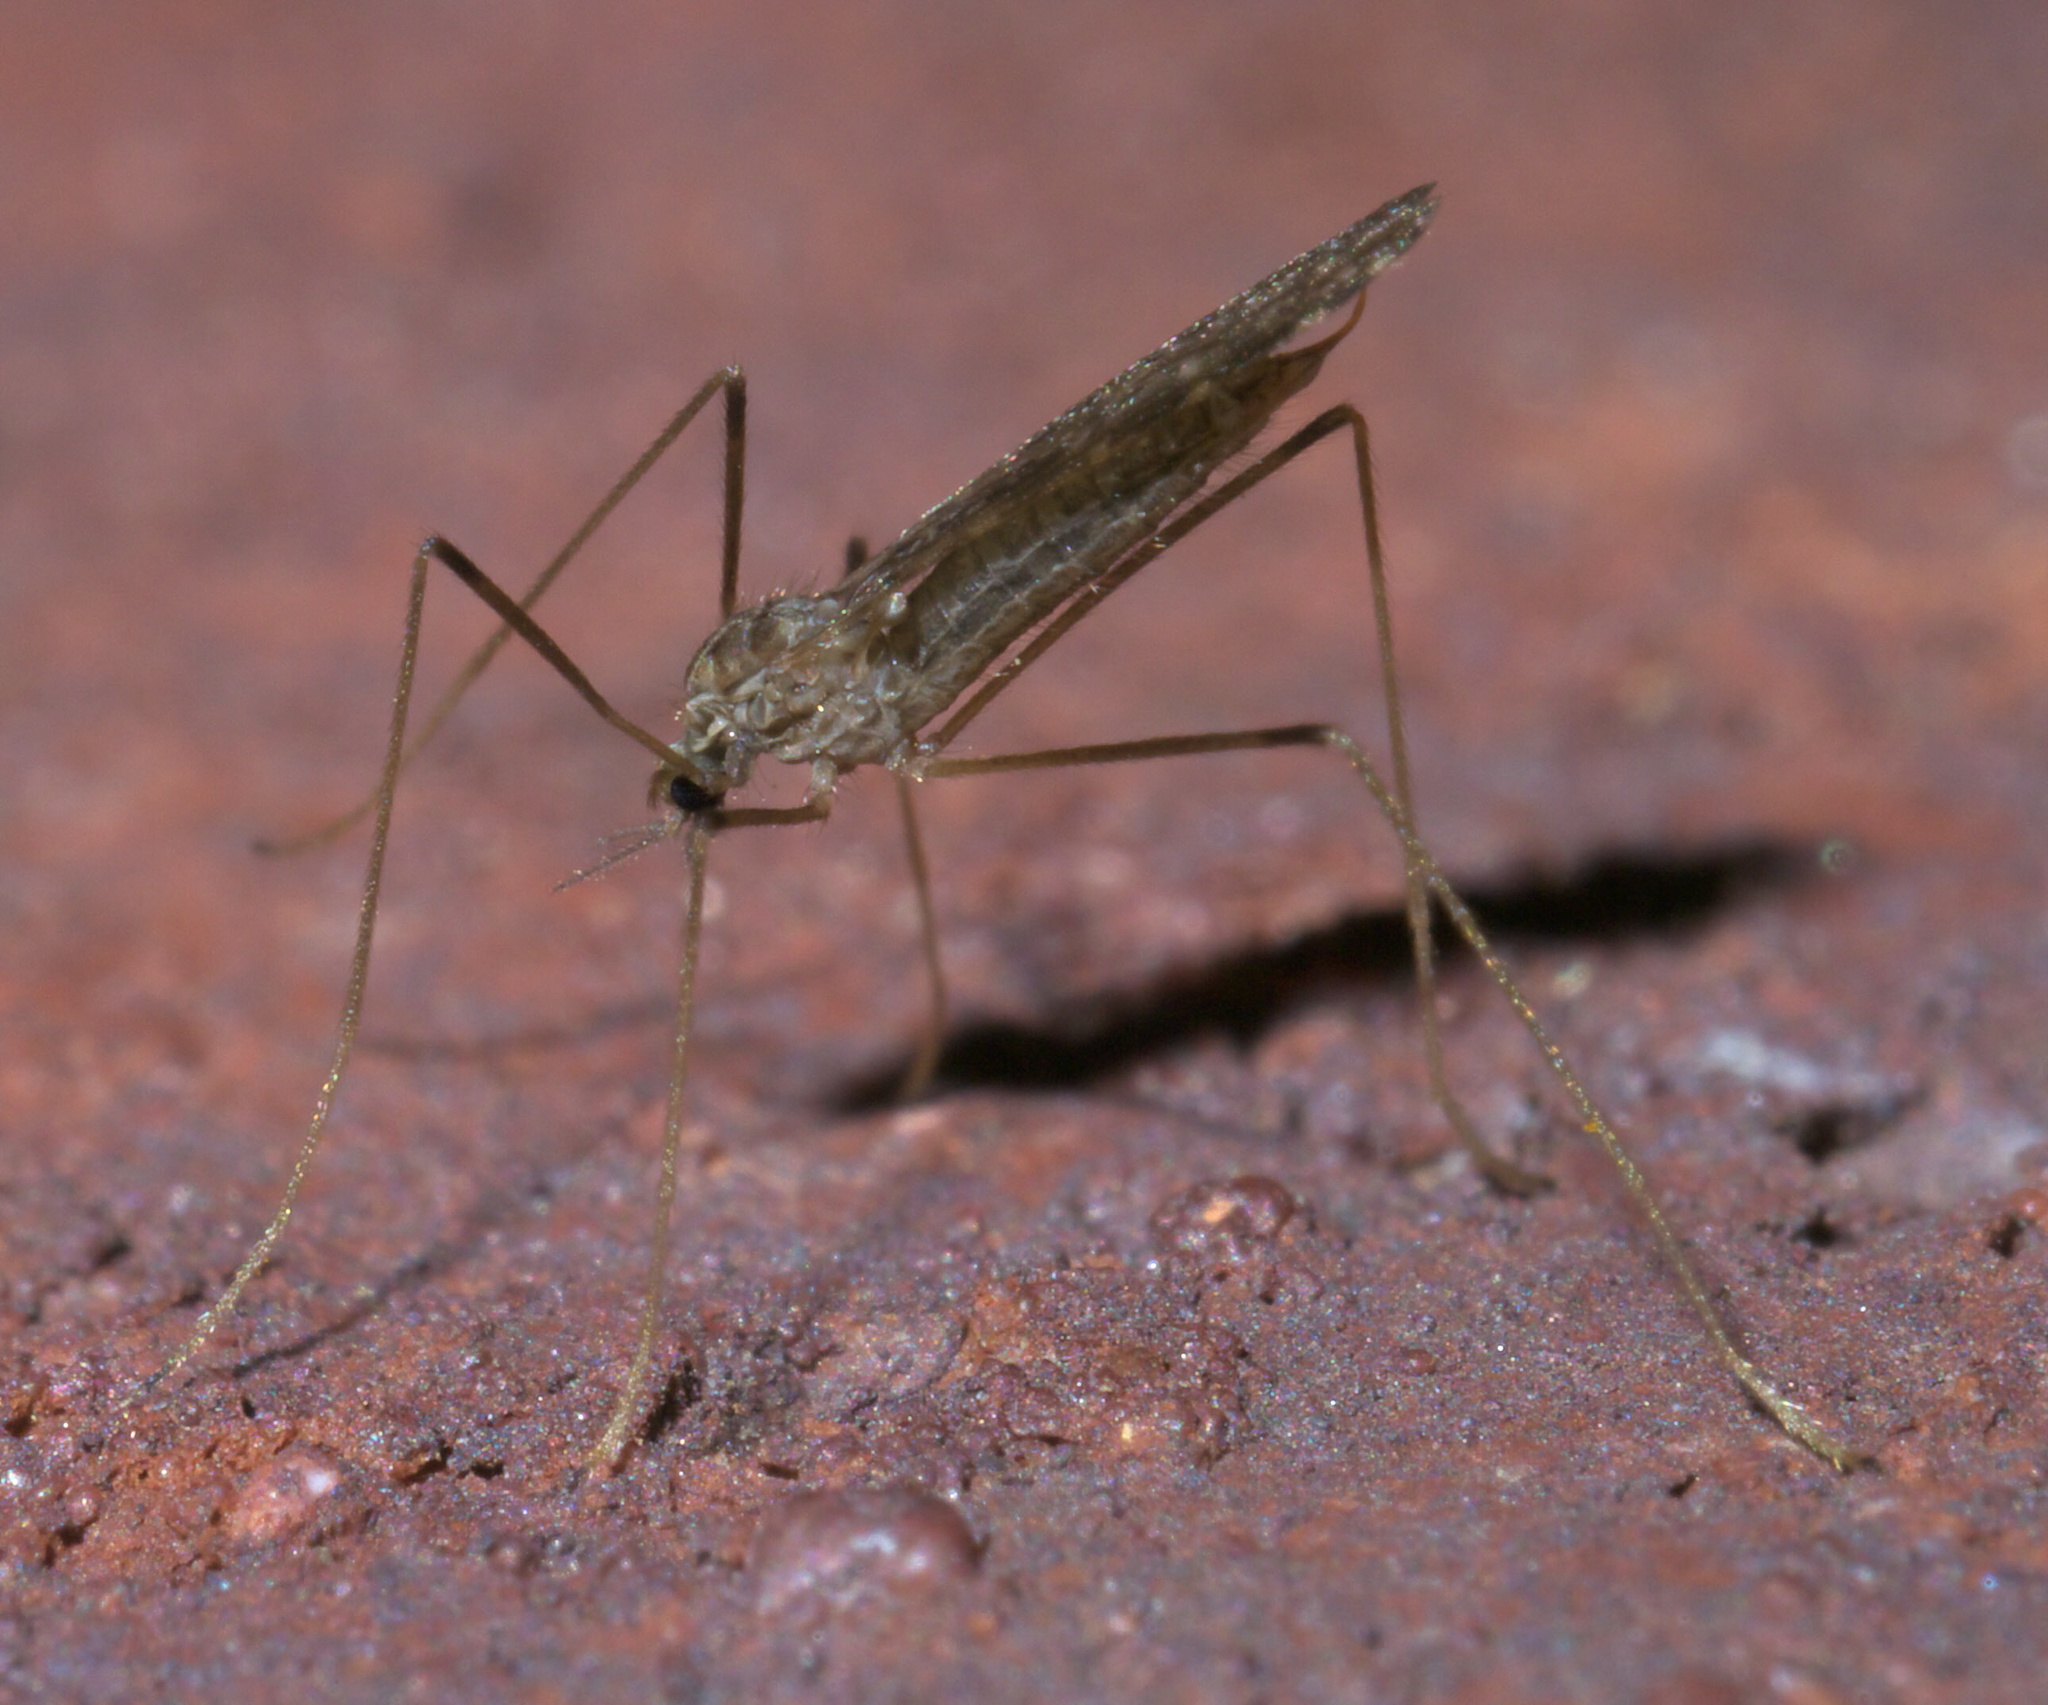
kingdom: Animalia
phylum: Arthropoda
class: Insecta
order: Diptera
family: Limoniidae
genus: Erioptera
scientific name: Erioptera tantilla
